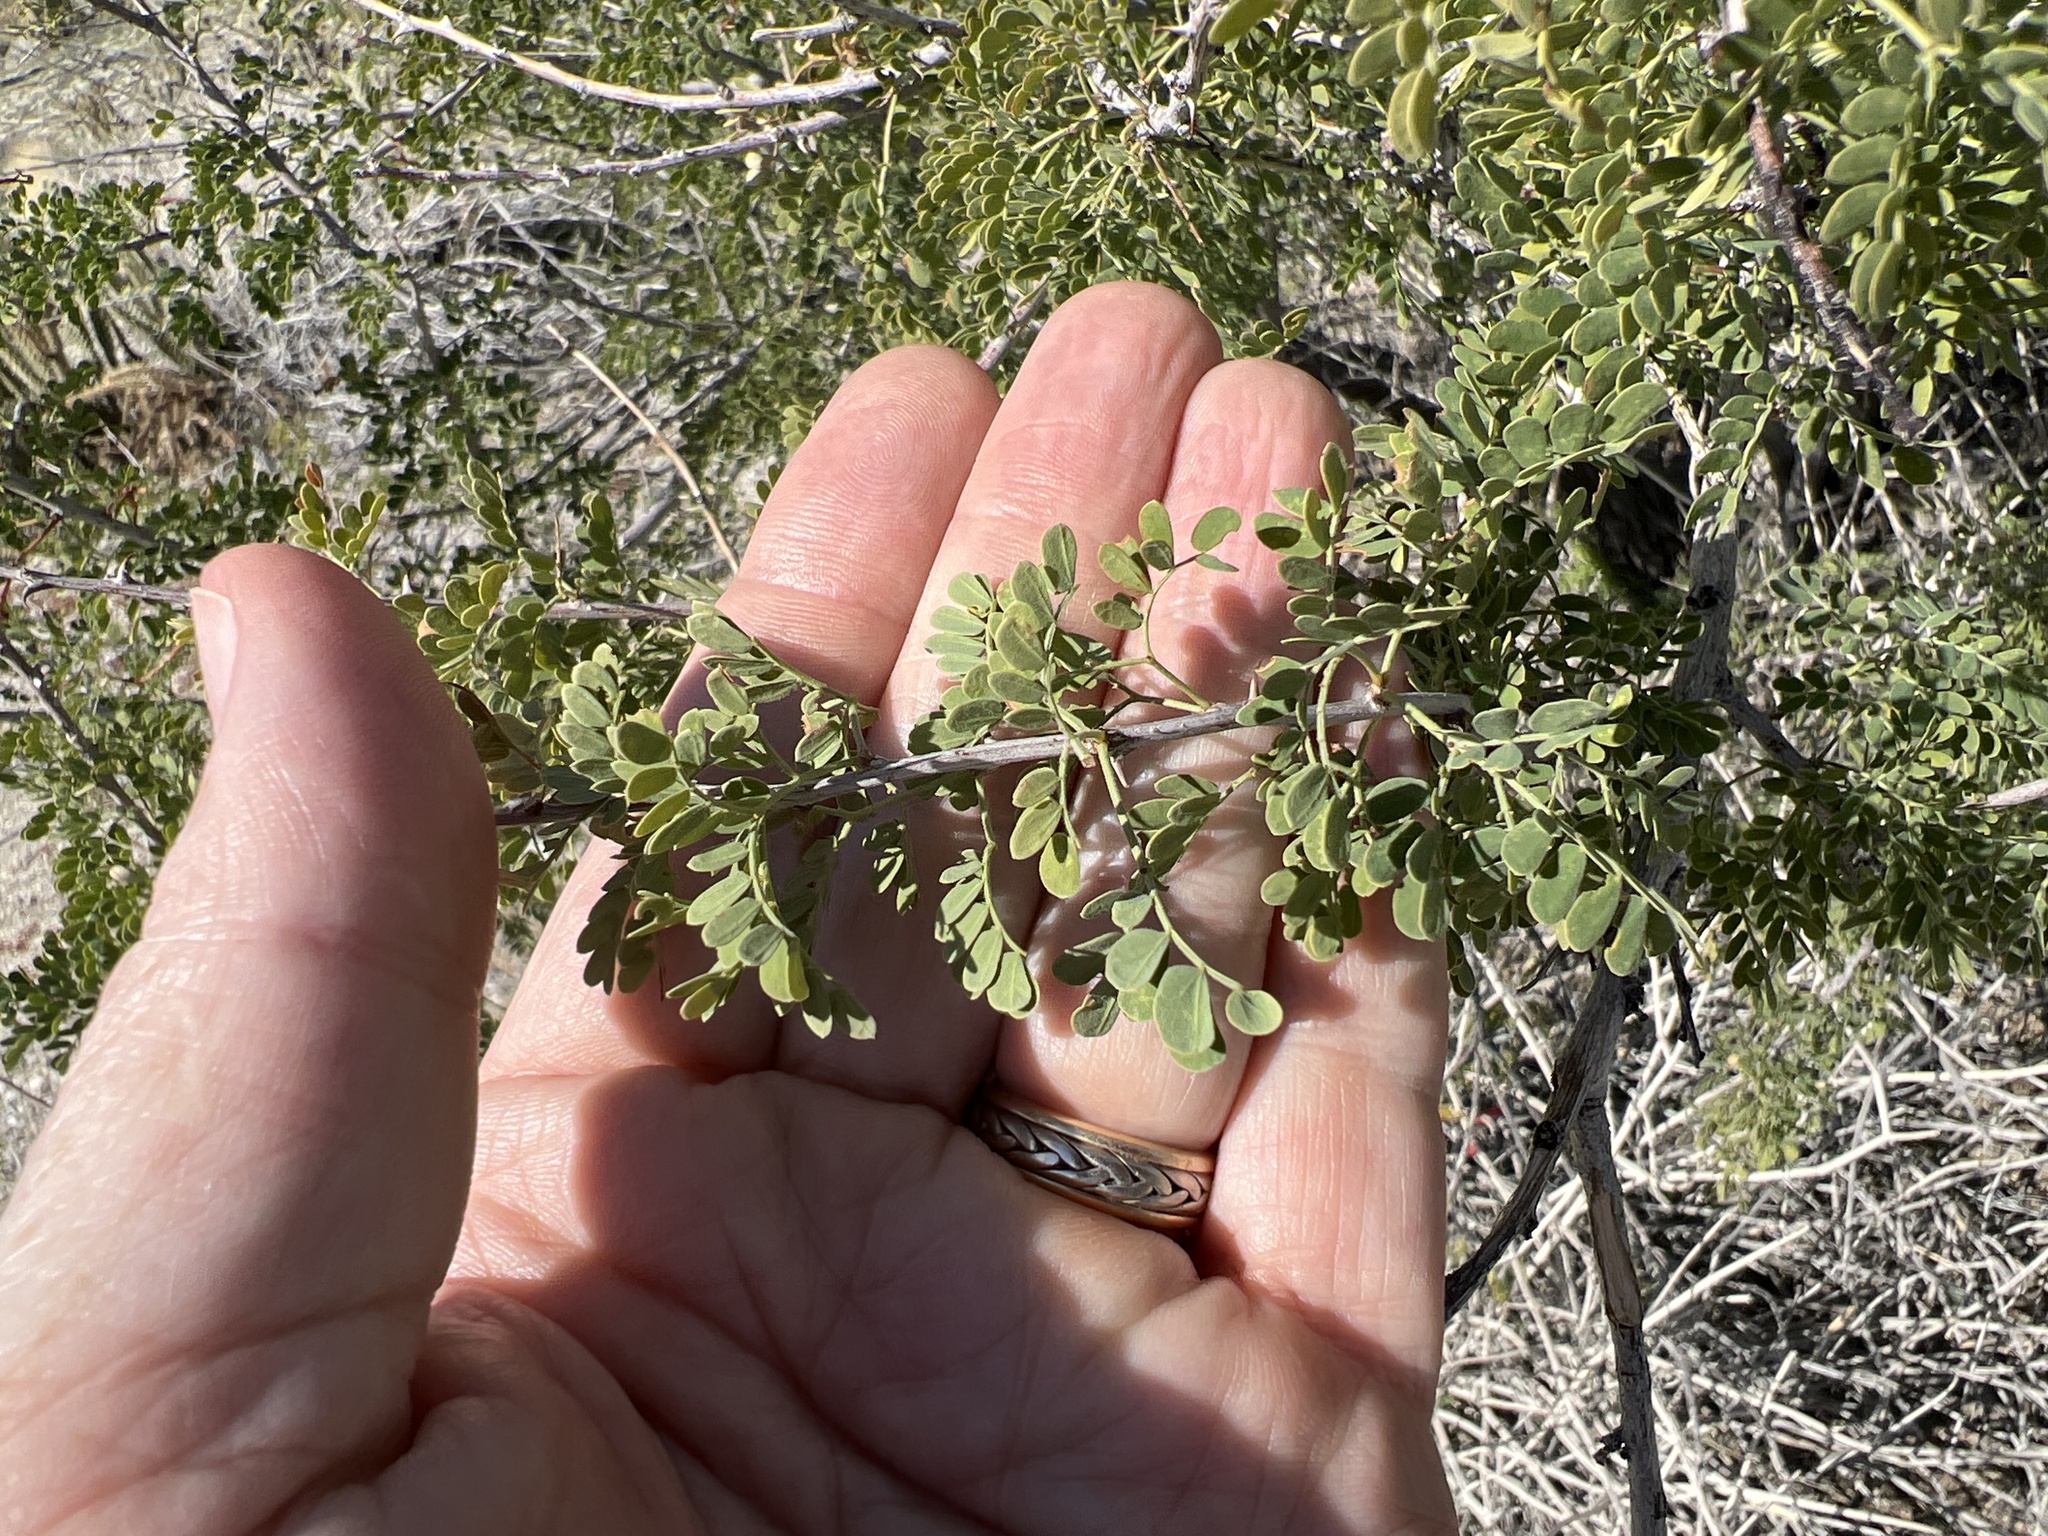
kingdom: Plantae
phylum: Tracheophyta
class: Magnoliopsida
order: Fabales
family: Fabaceae
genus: Senegalia
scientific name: Senegalia greggii
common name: Texas-mimosa
